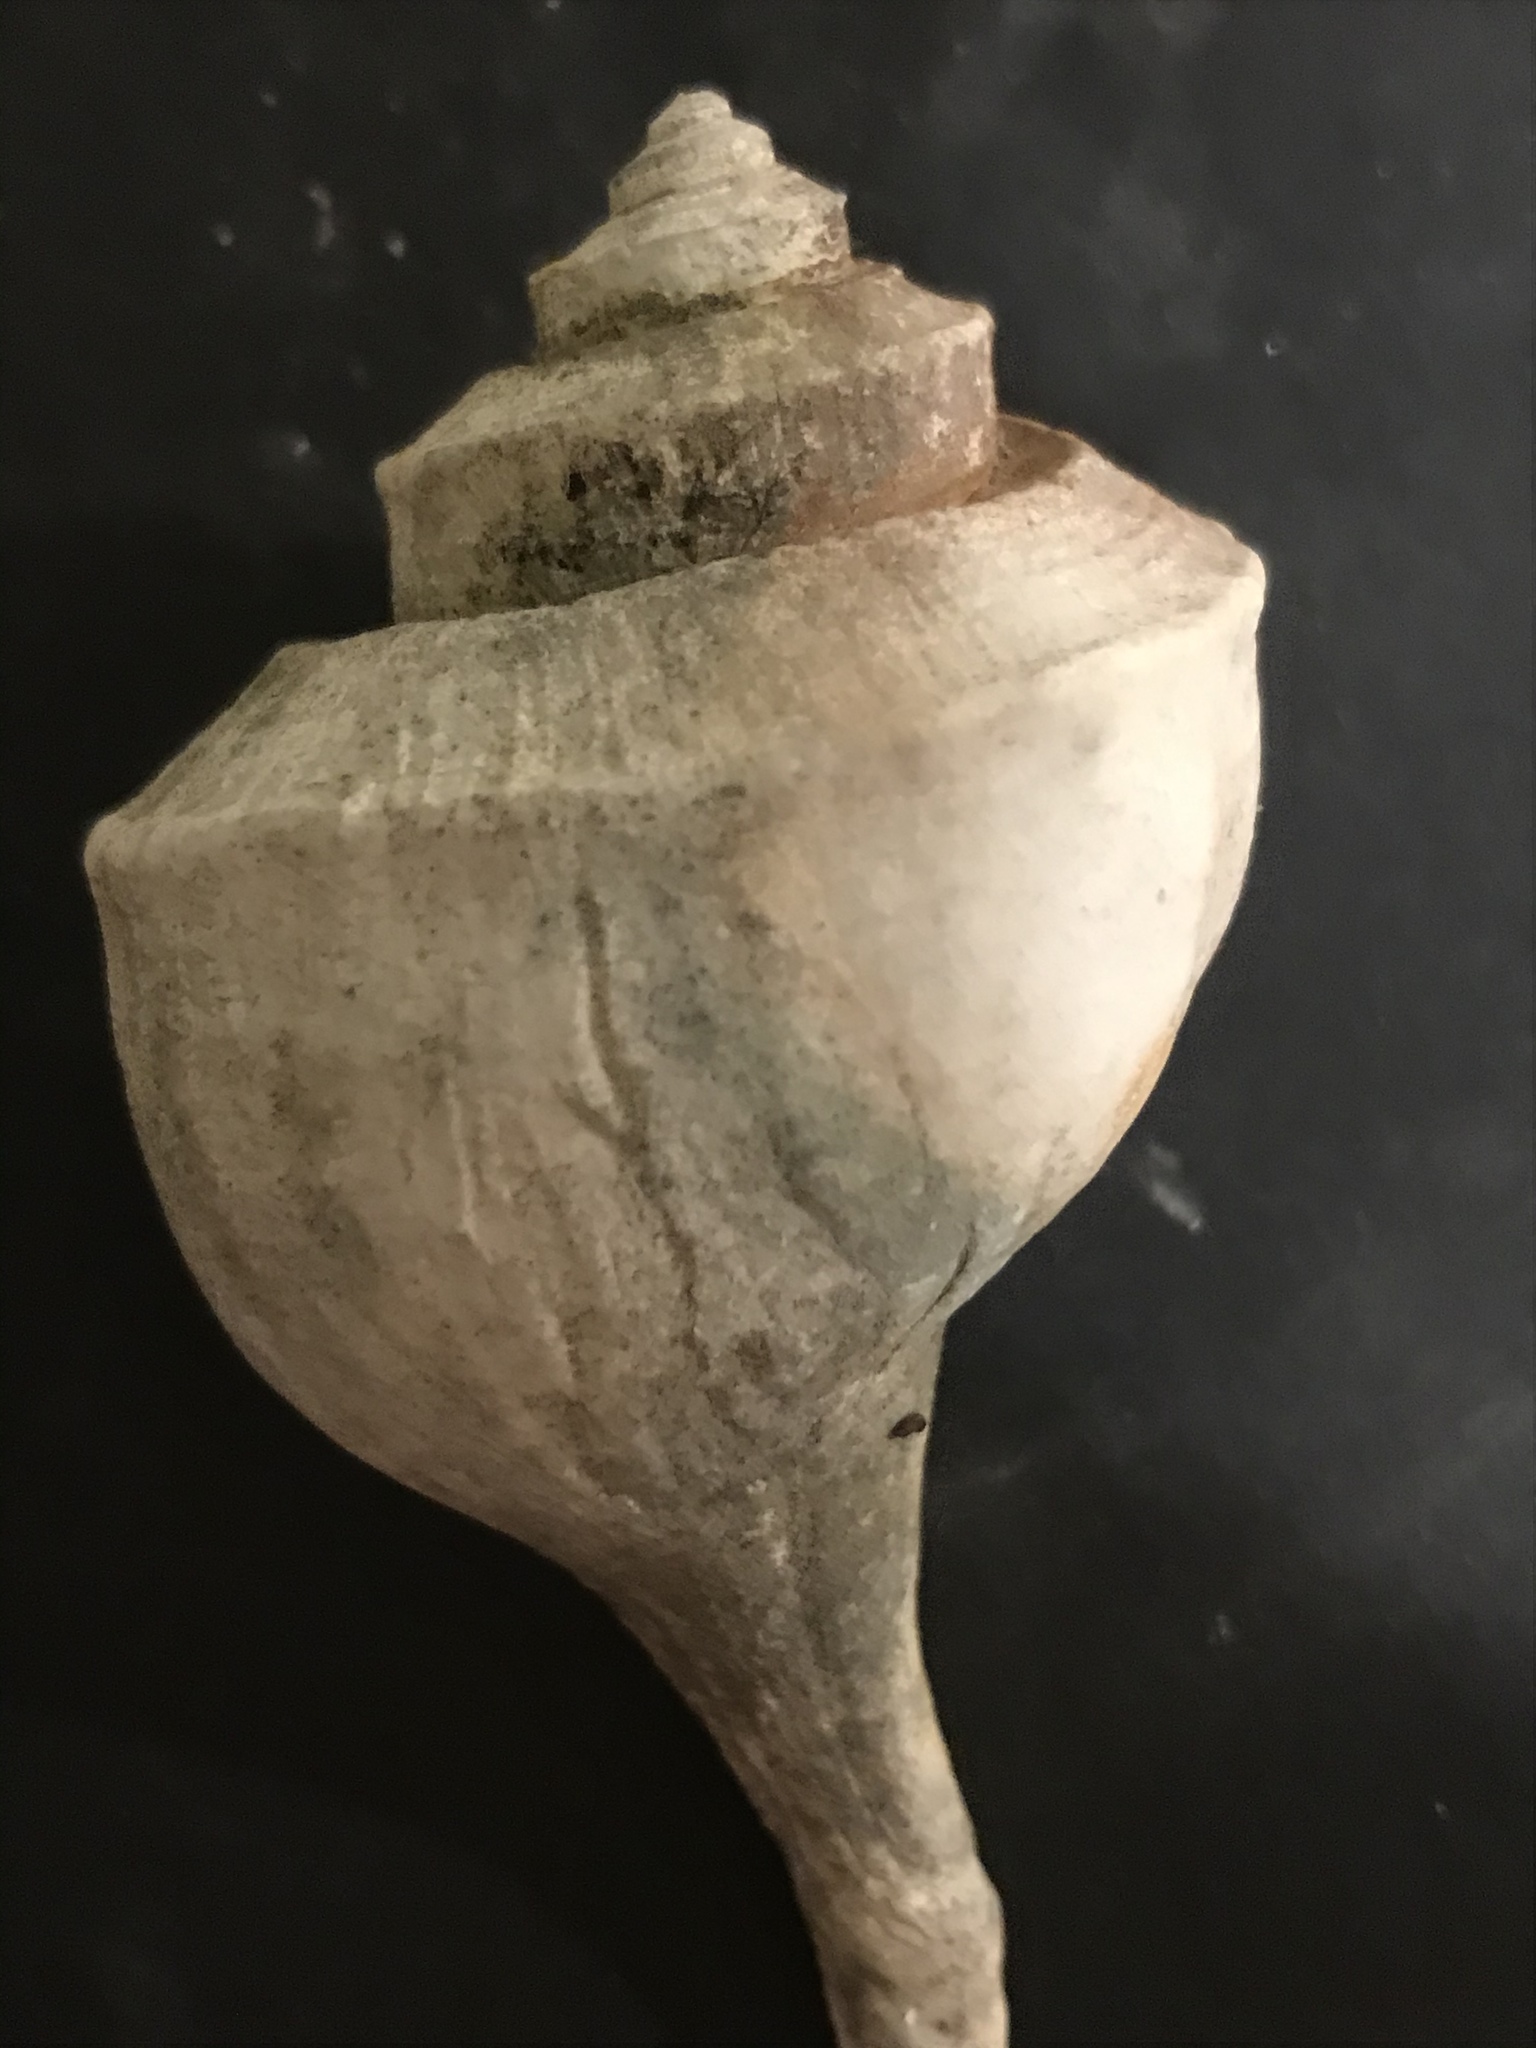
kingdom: Animalia
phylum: Mollusca
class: Gastropoda
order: Neogastropoda
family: Busyconidae
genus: Busycotypus
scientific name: Busycotypus canaliculatus
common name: Channeled whelk
